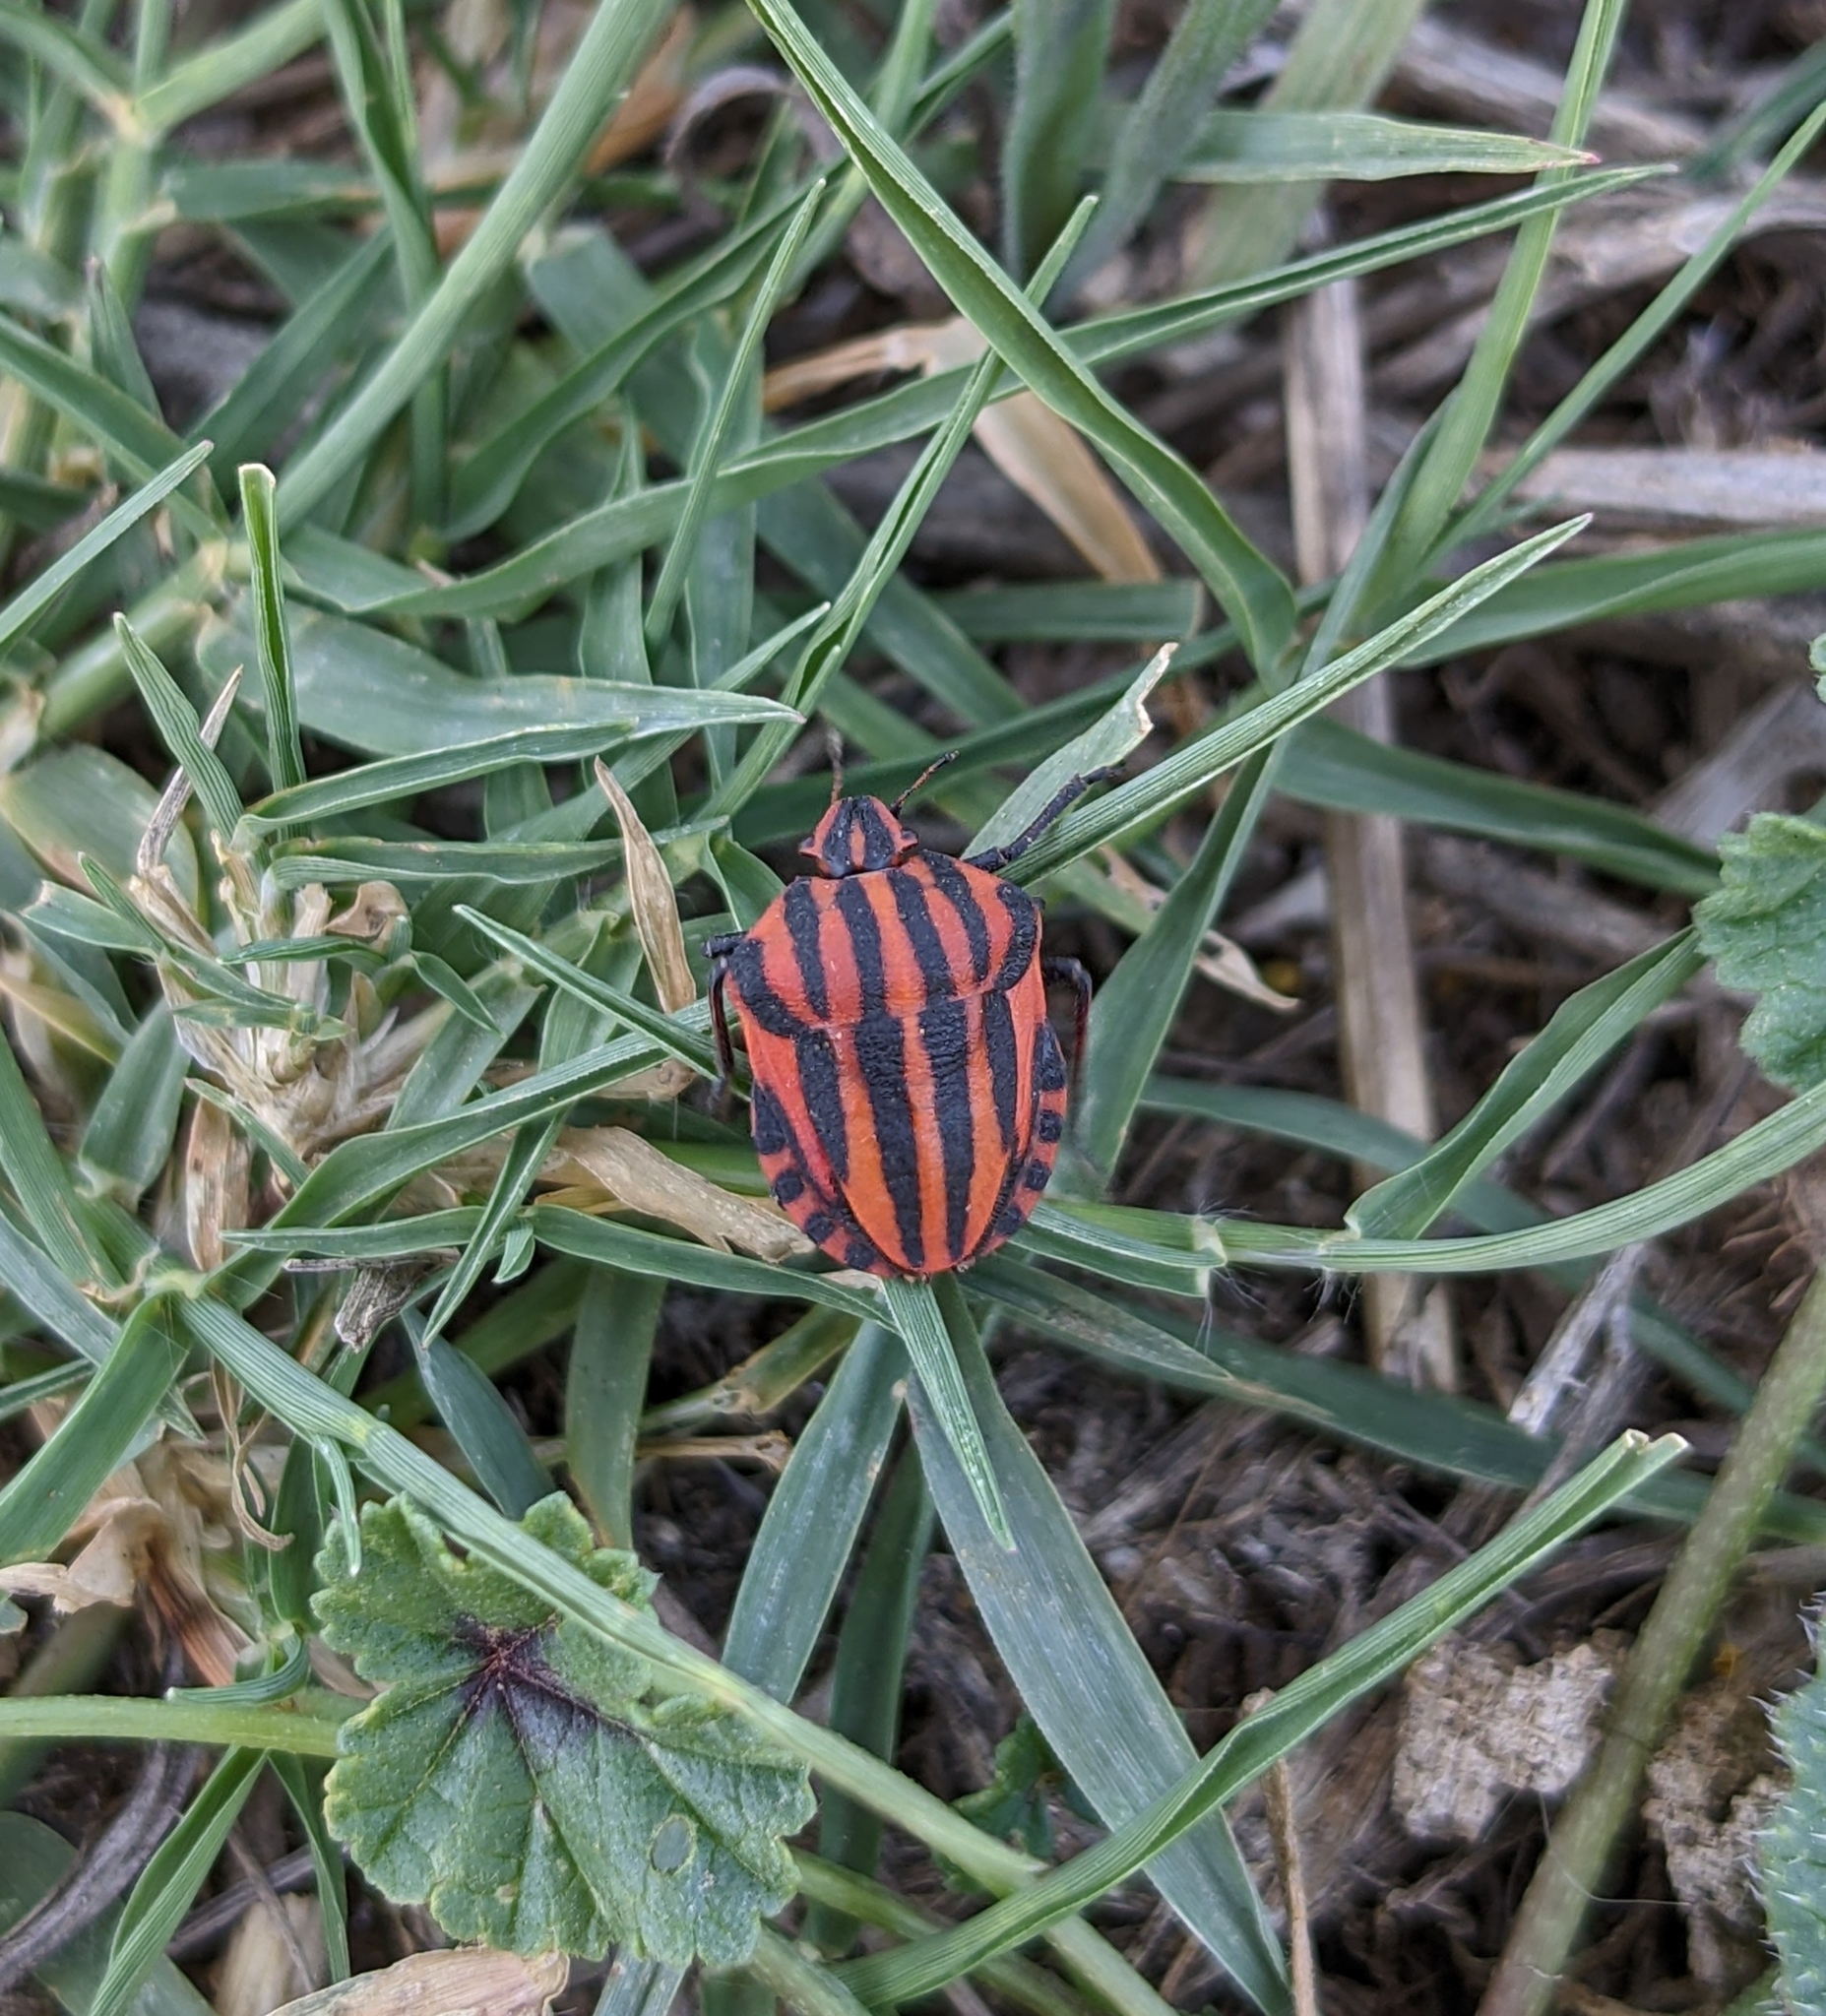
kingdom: Animalia
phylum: Arthropoda
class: Insecta
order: Hemiptera
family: Pentatomidae
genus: Graphosoma
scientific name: Graphosoma italicum
